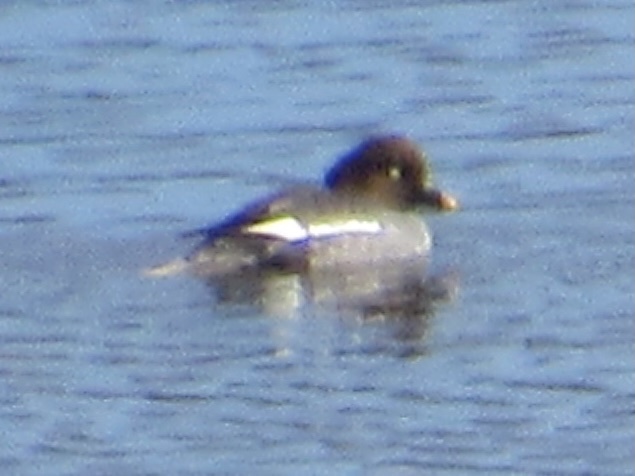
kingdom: Animalia
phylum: Chordata
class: Aves
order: Anseriformes
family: Anatidae
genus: Bucephala
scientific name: Bucephala clangula
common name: Common goldeneye
